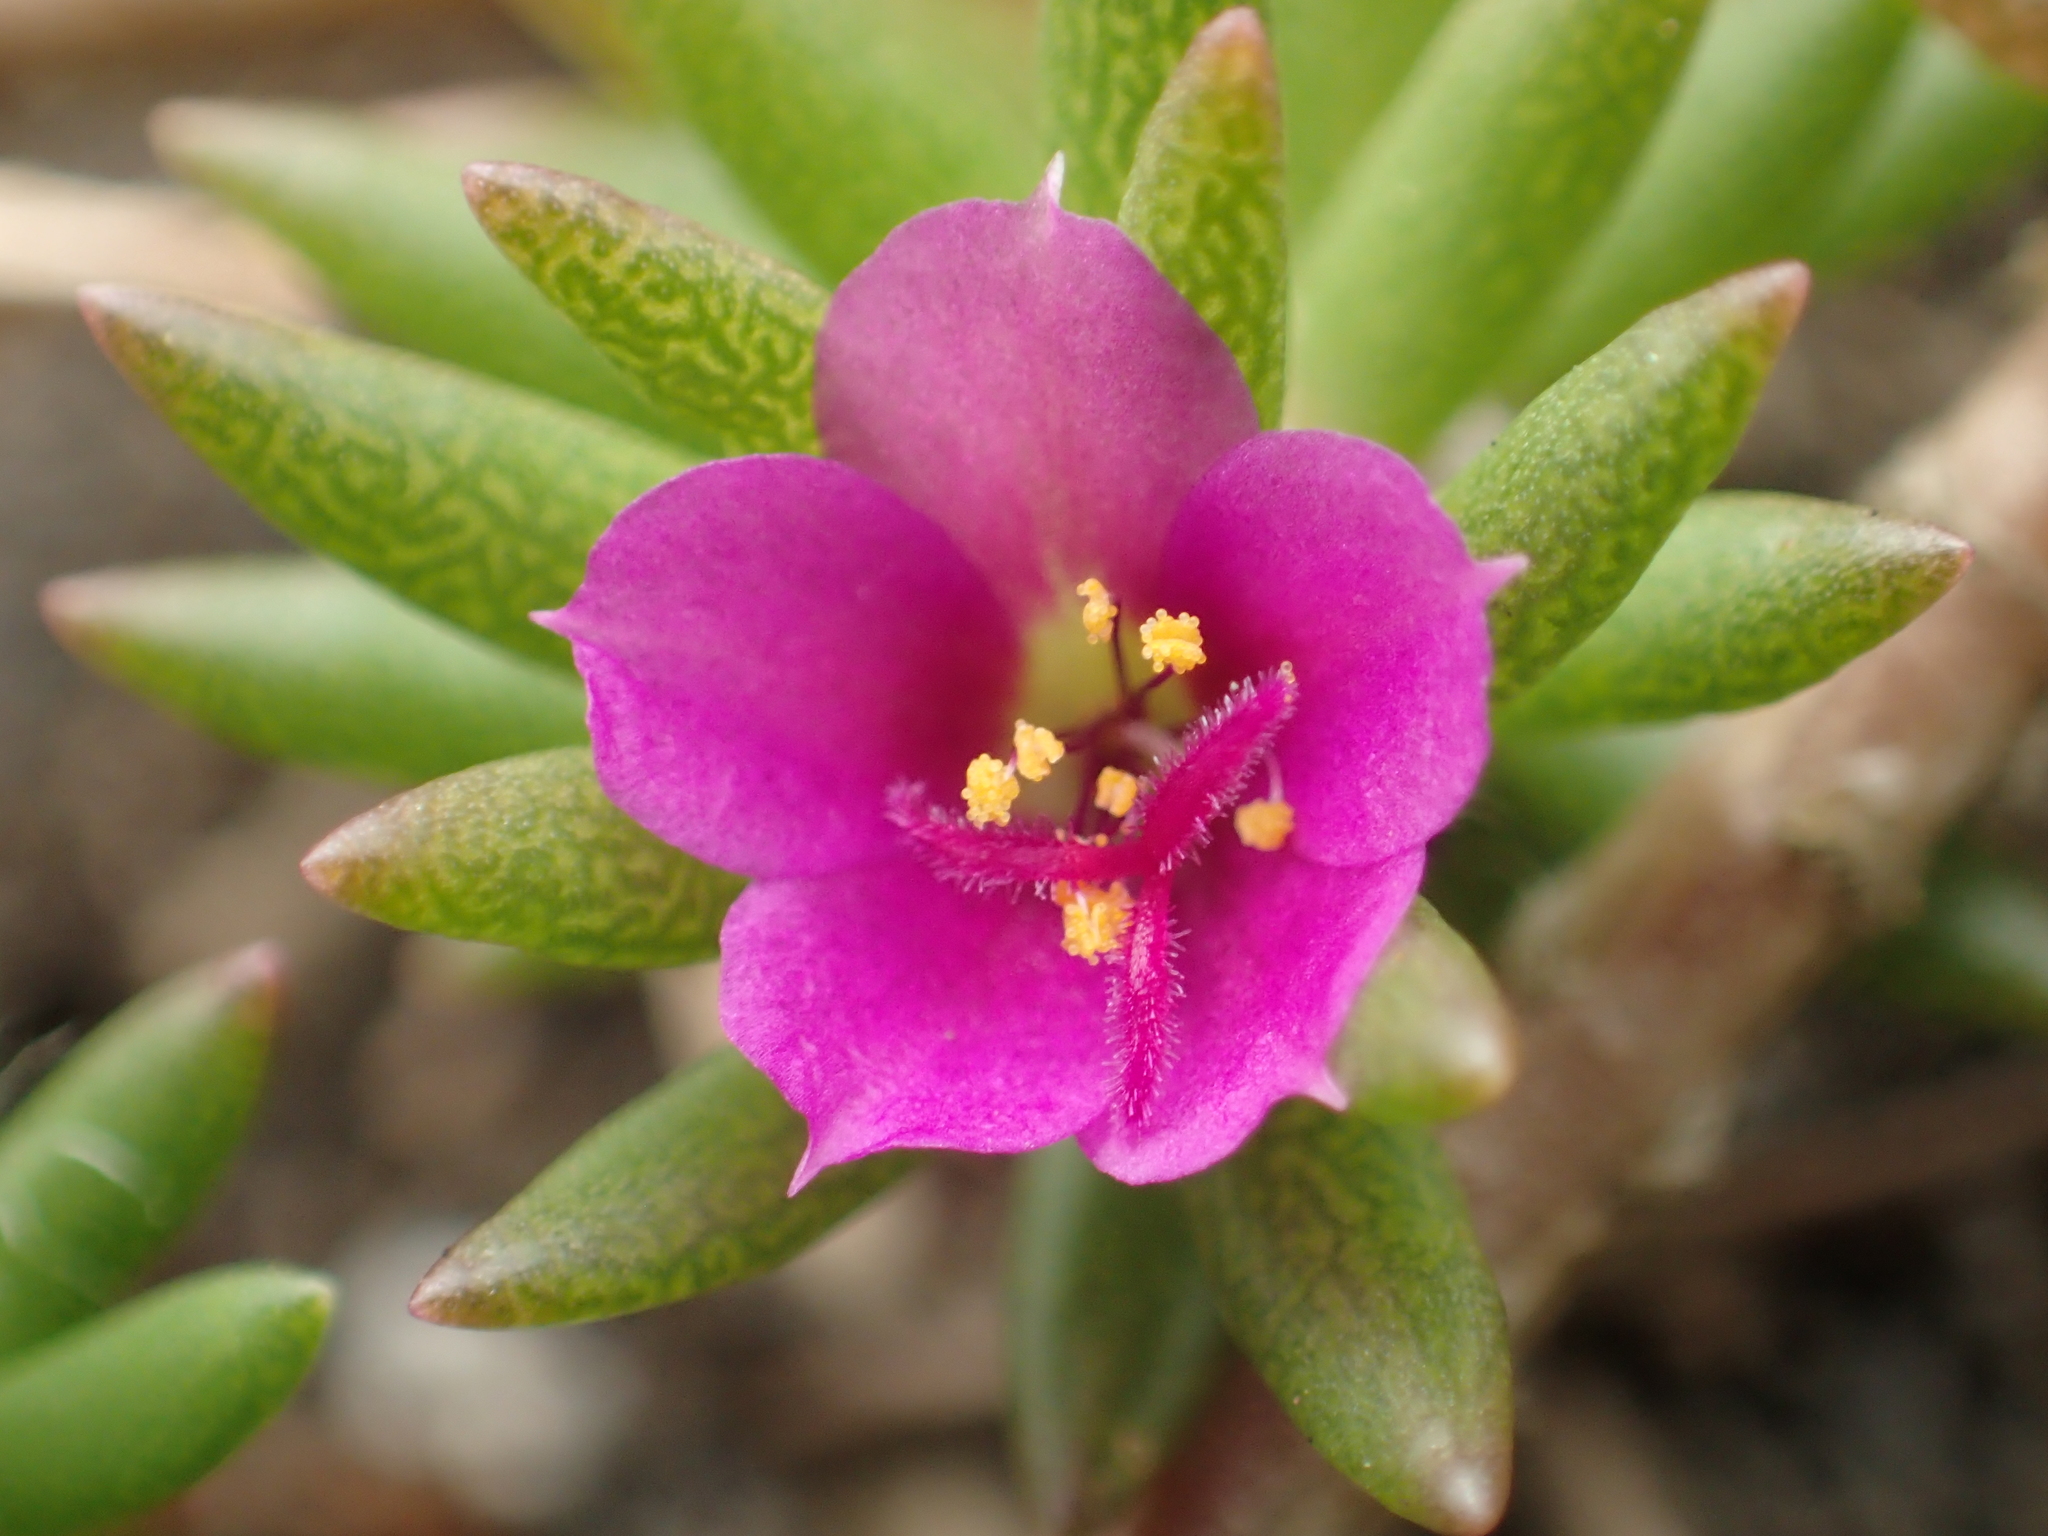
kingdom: Plantae
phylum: Tracheophyta
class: Magnoliopsida
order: Caryophyllales
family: Portulacaceae
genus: Portulaca
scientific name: Portulaca pilosa
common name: Kiss me quick
